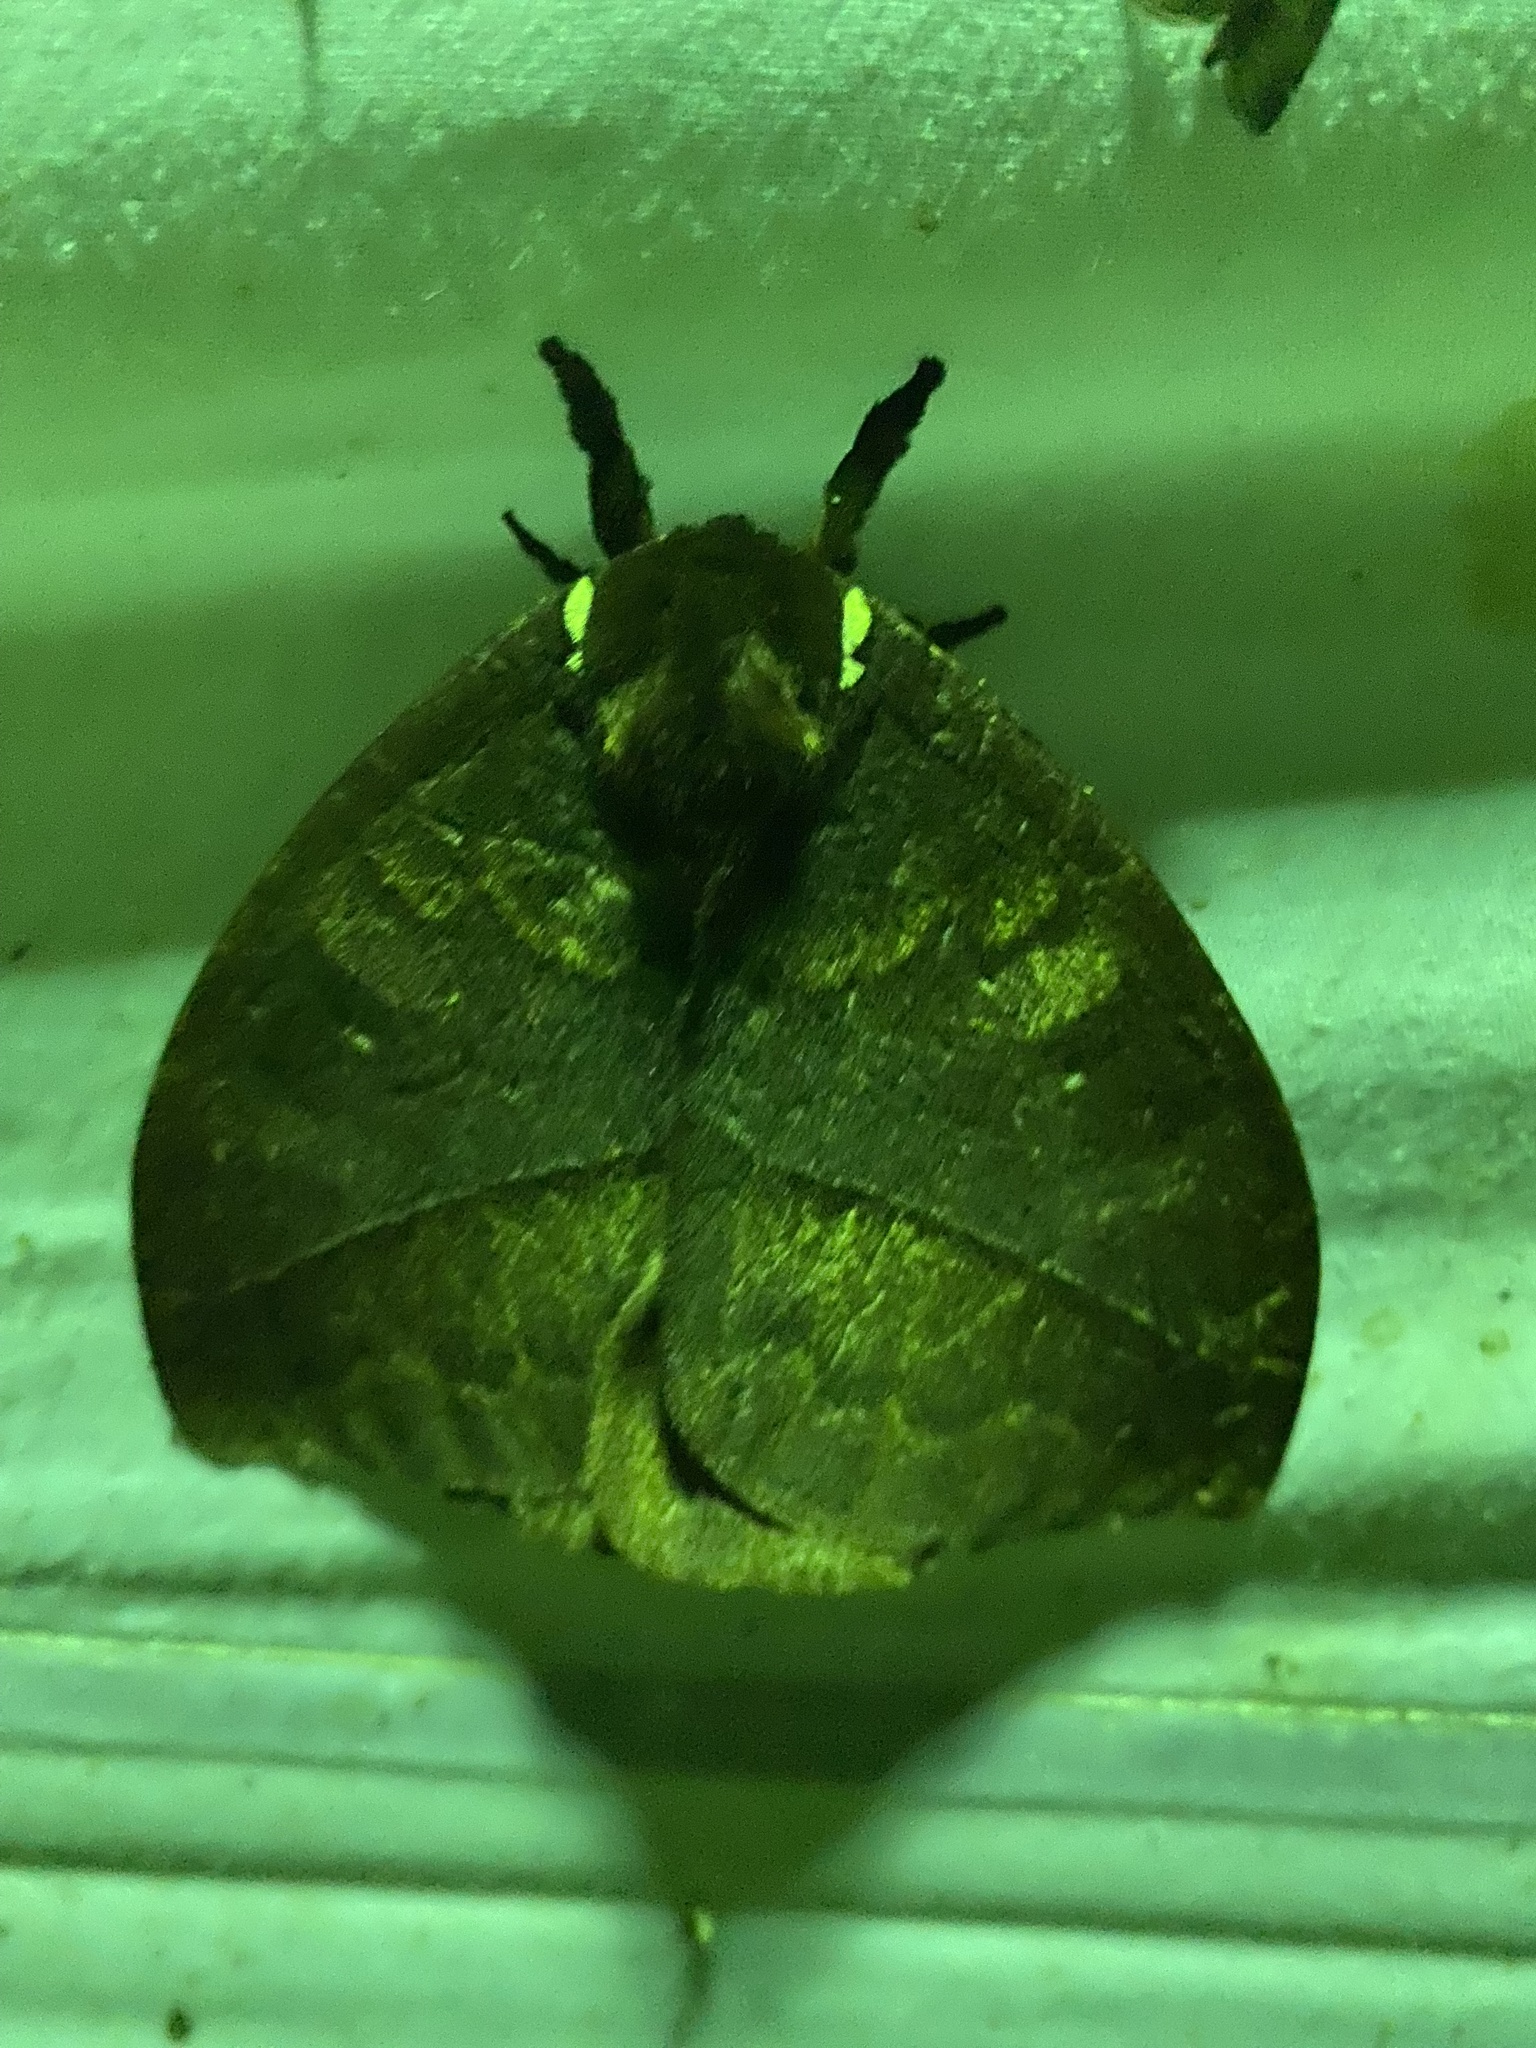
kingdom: Animalia
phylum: Arthropoda
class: Insecta
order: Lepidoptera
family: Saturniidae
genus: Hyperchiria
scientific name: Hyperchiria nausica
